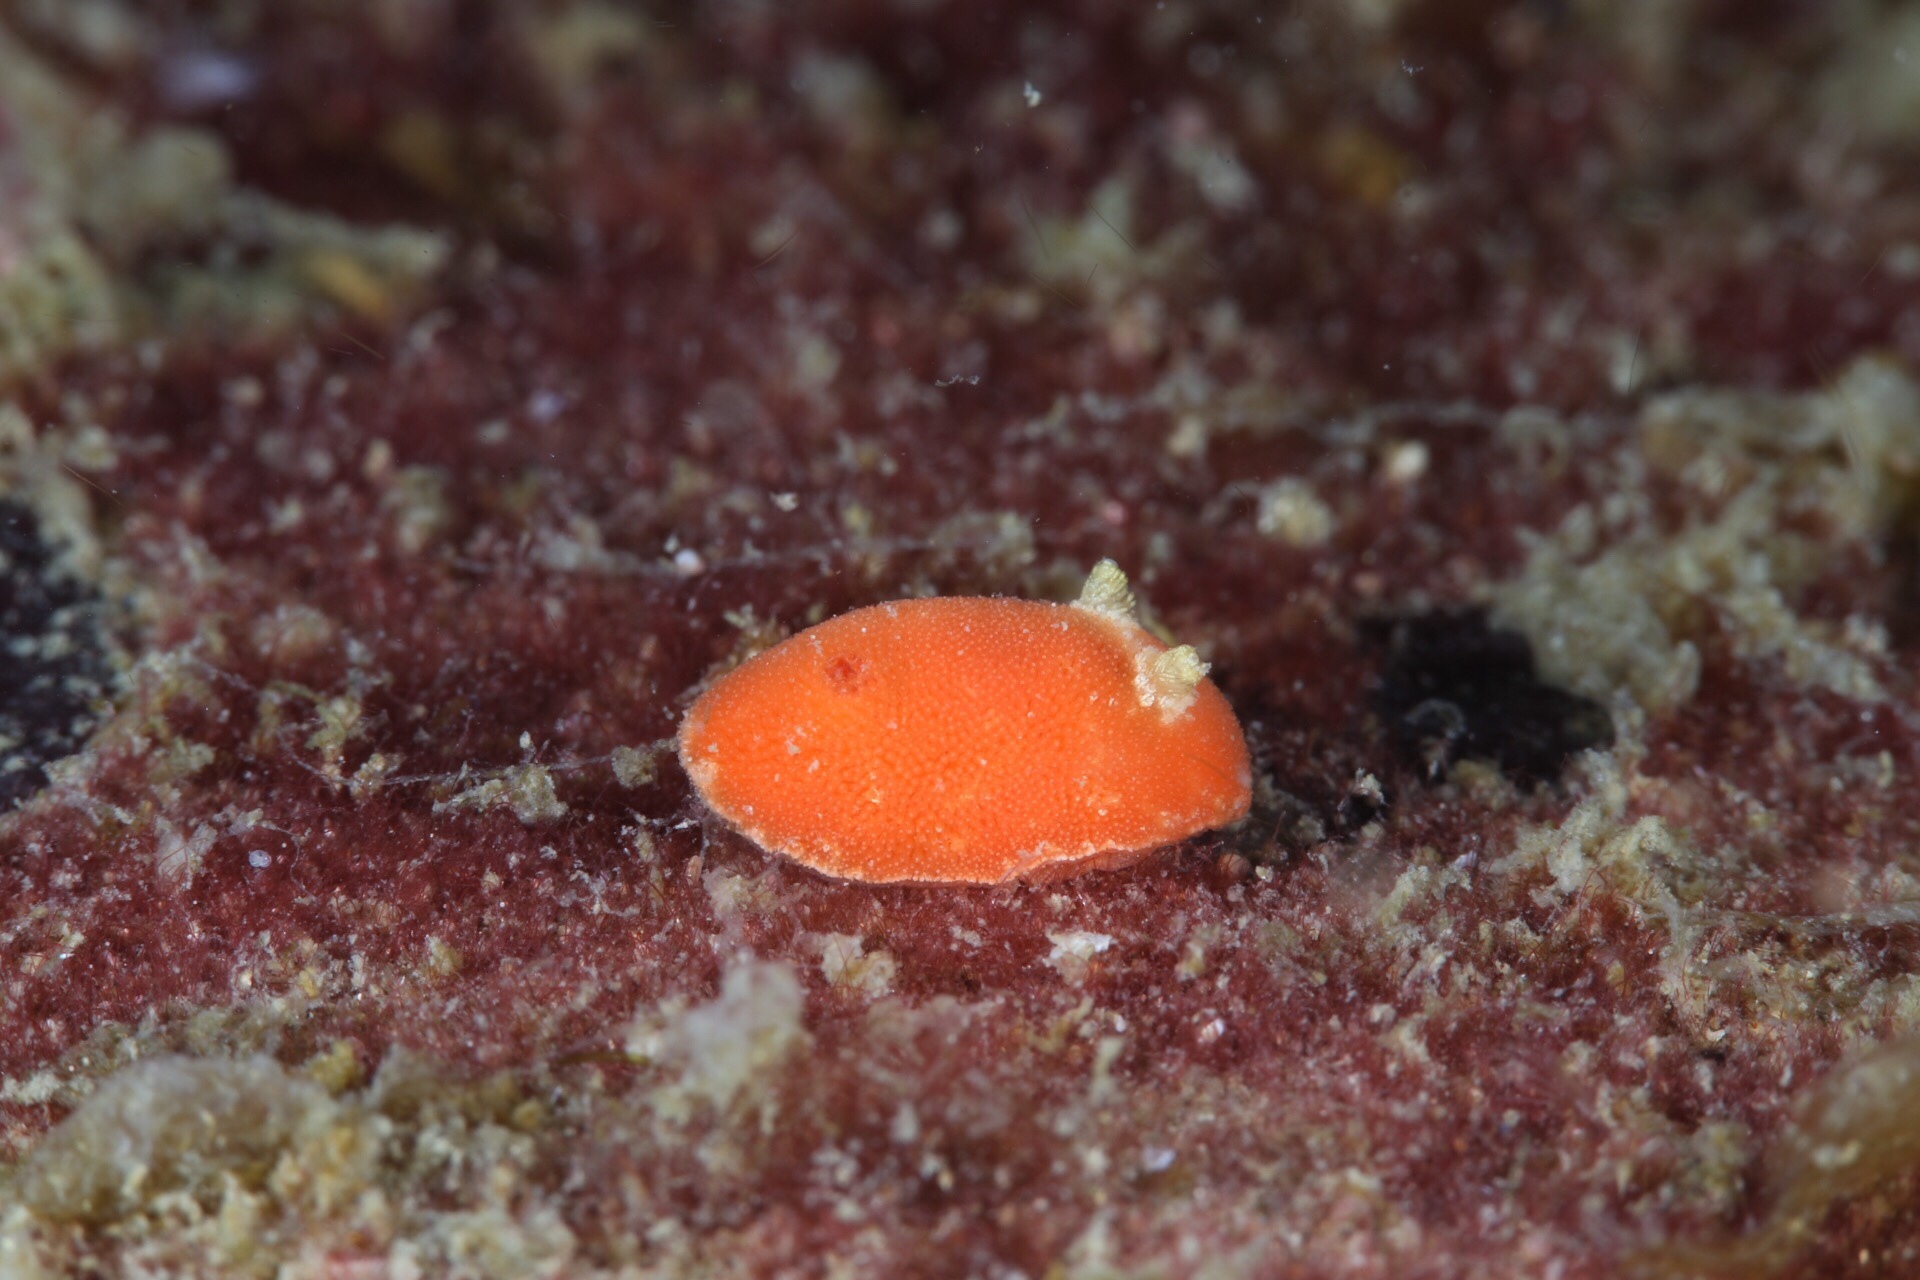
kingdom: Animalia
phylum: Mollusca
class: Gastropoda
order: Nudibranchia
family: Discodorididae
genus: Rostanga
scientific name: Rostanga rubra
